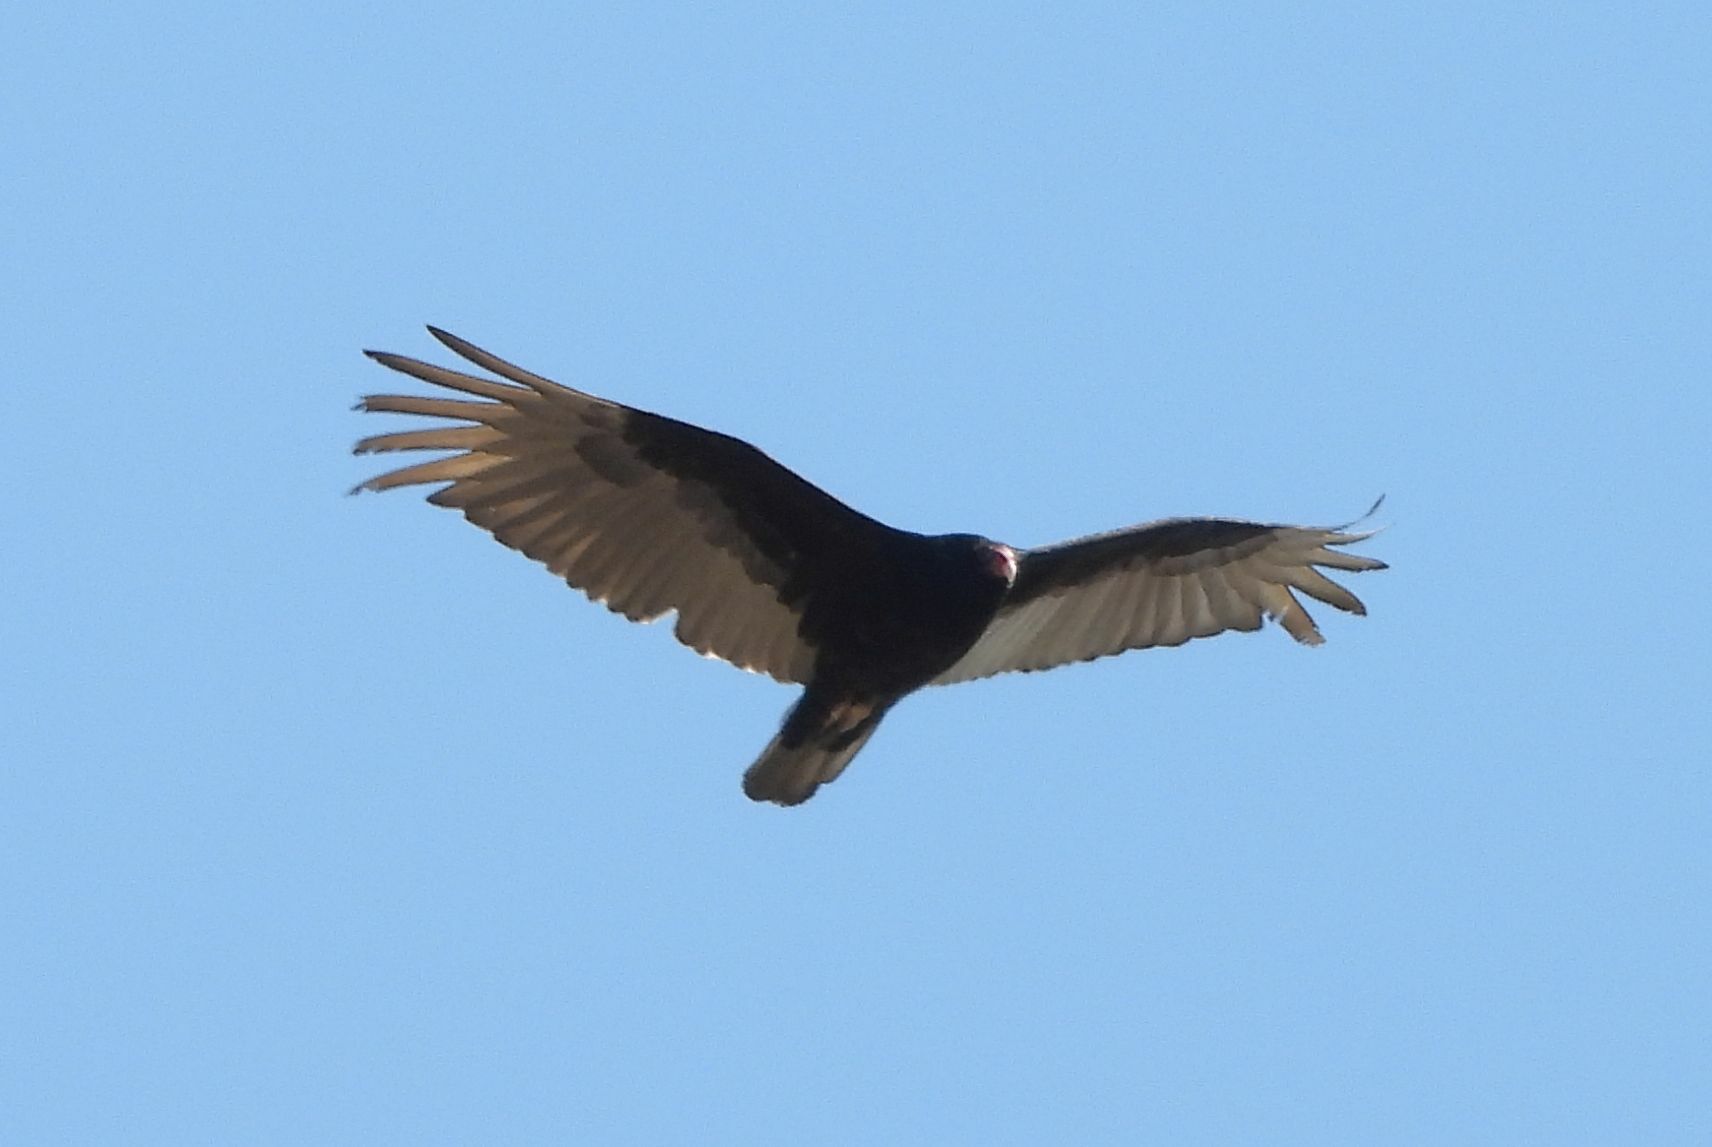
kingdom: Animalia
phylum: Chordata
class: Aves
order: Accipitriformes
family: Cathartidae
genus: Cathartes
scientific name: Cathartes aura
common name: Turkey vulture
